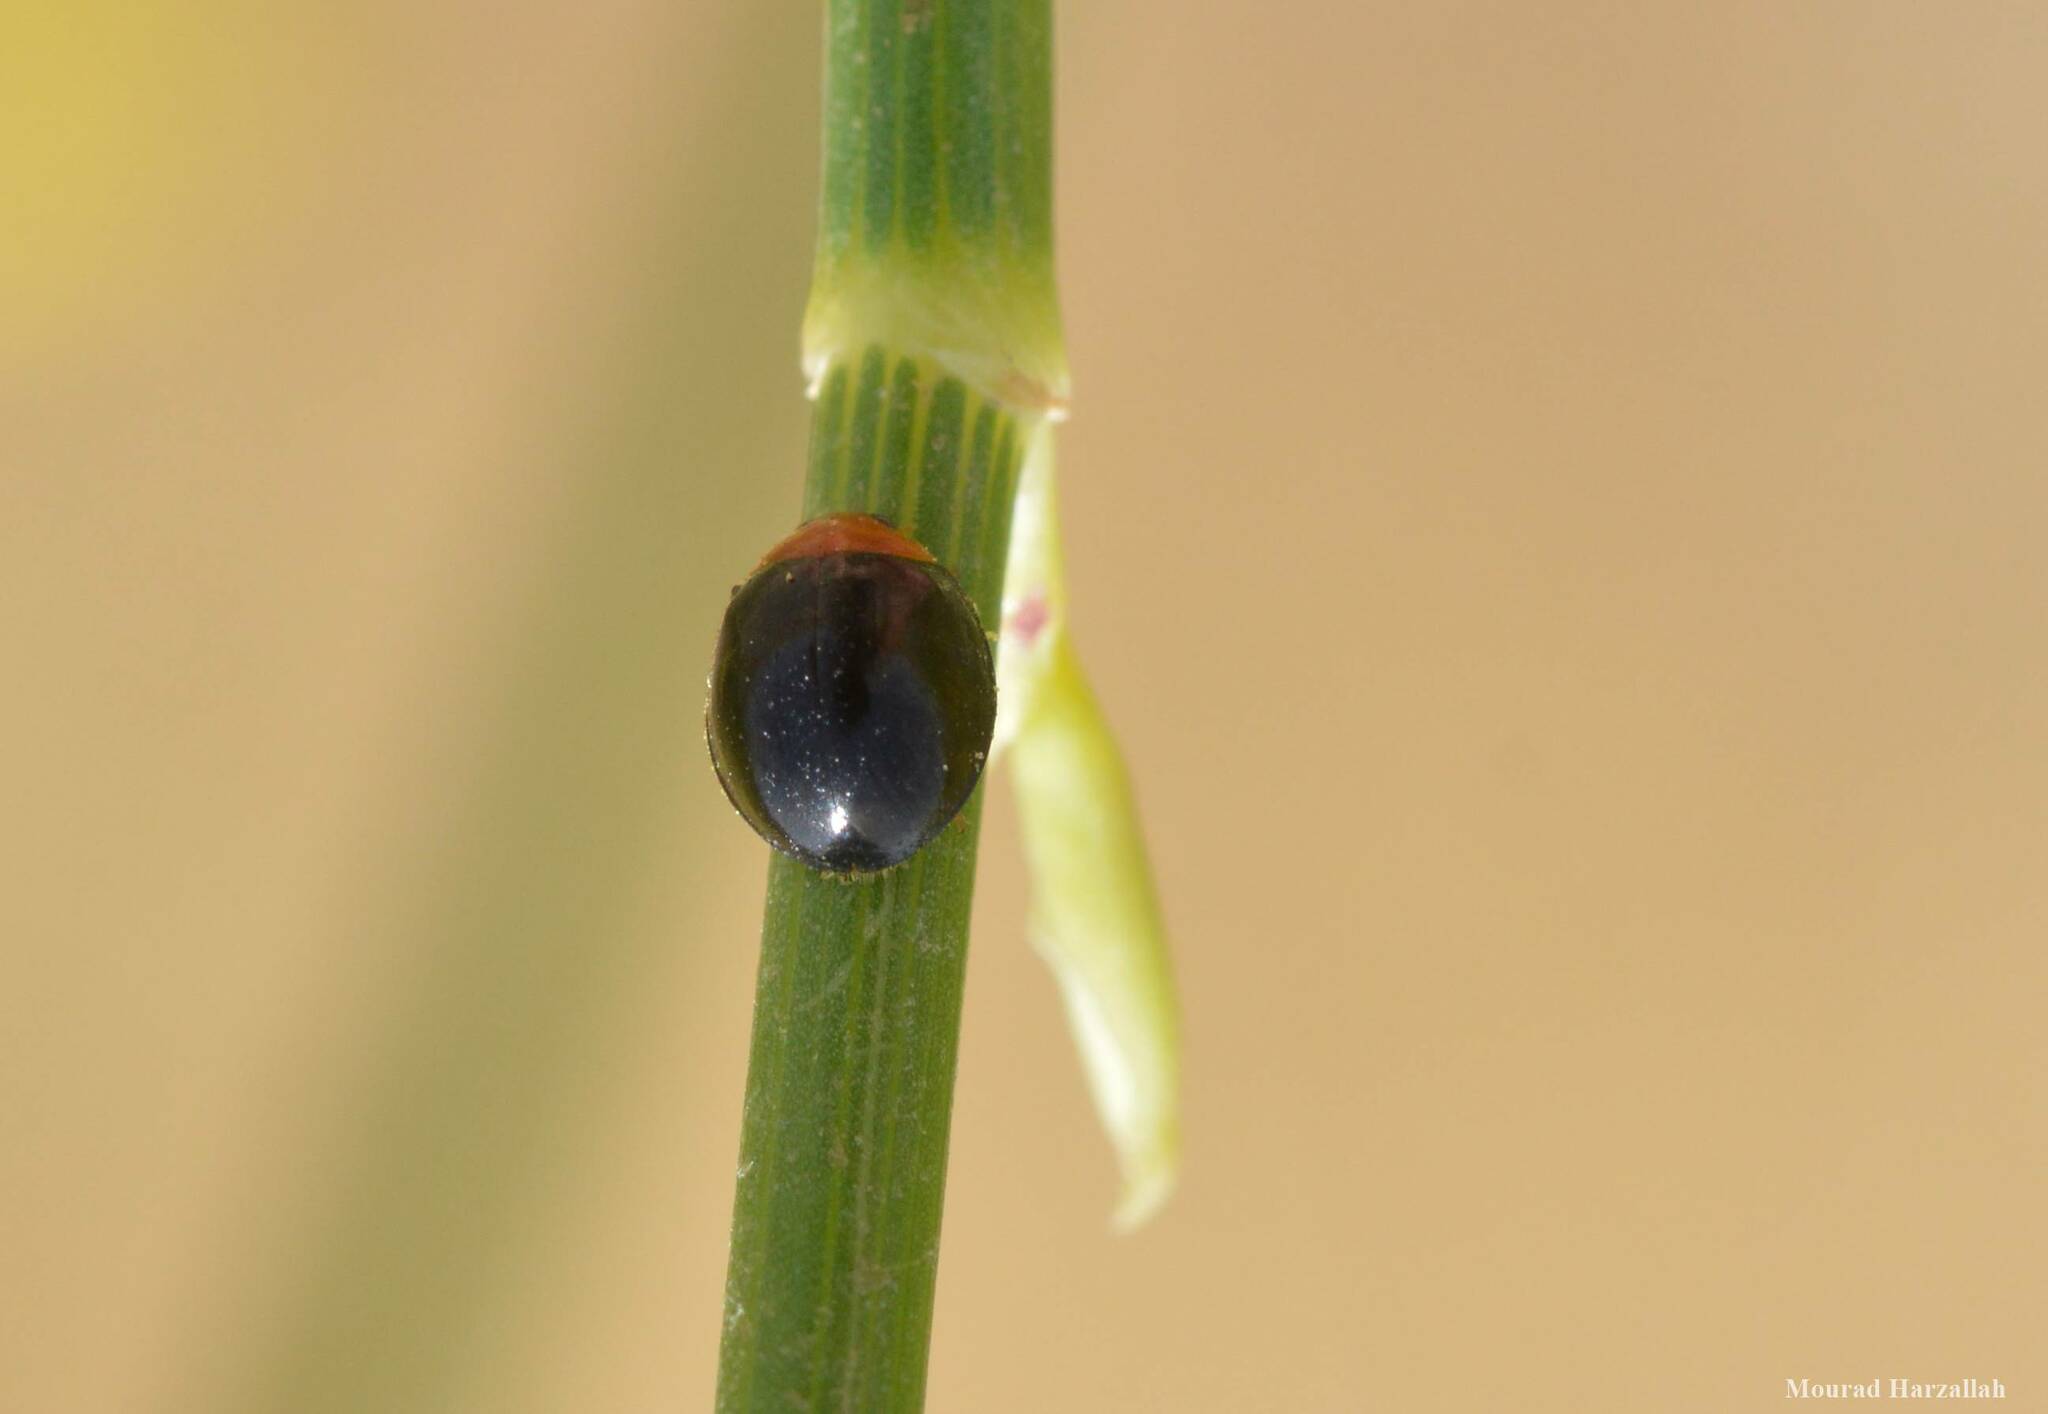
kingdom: Animalia
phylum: Arthropoda
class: Insecta
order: Coleoptera
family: Coccinellidae
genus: Exochomus
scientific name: Exochomus nigripennis
